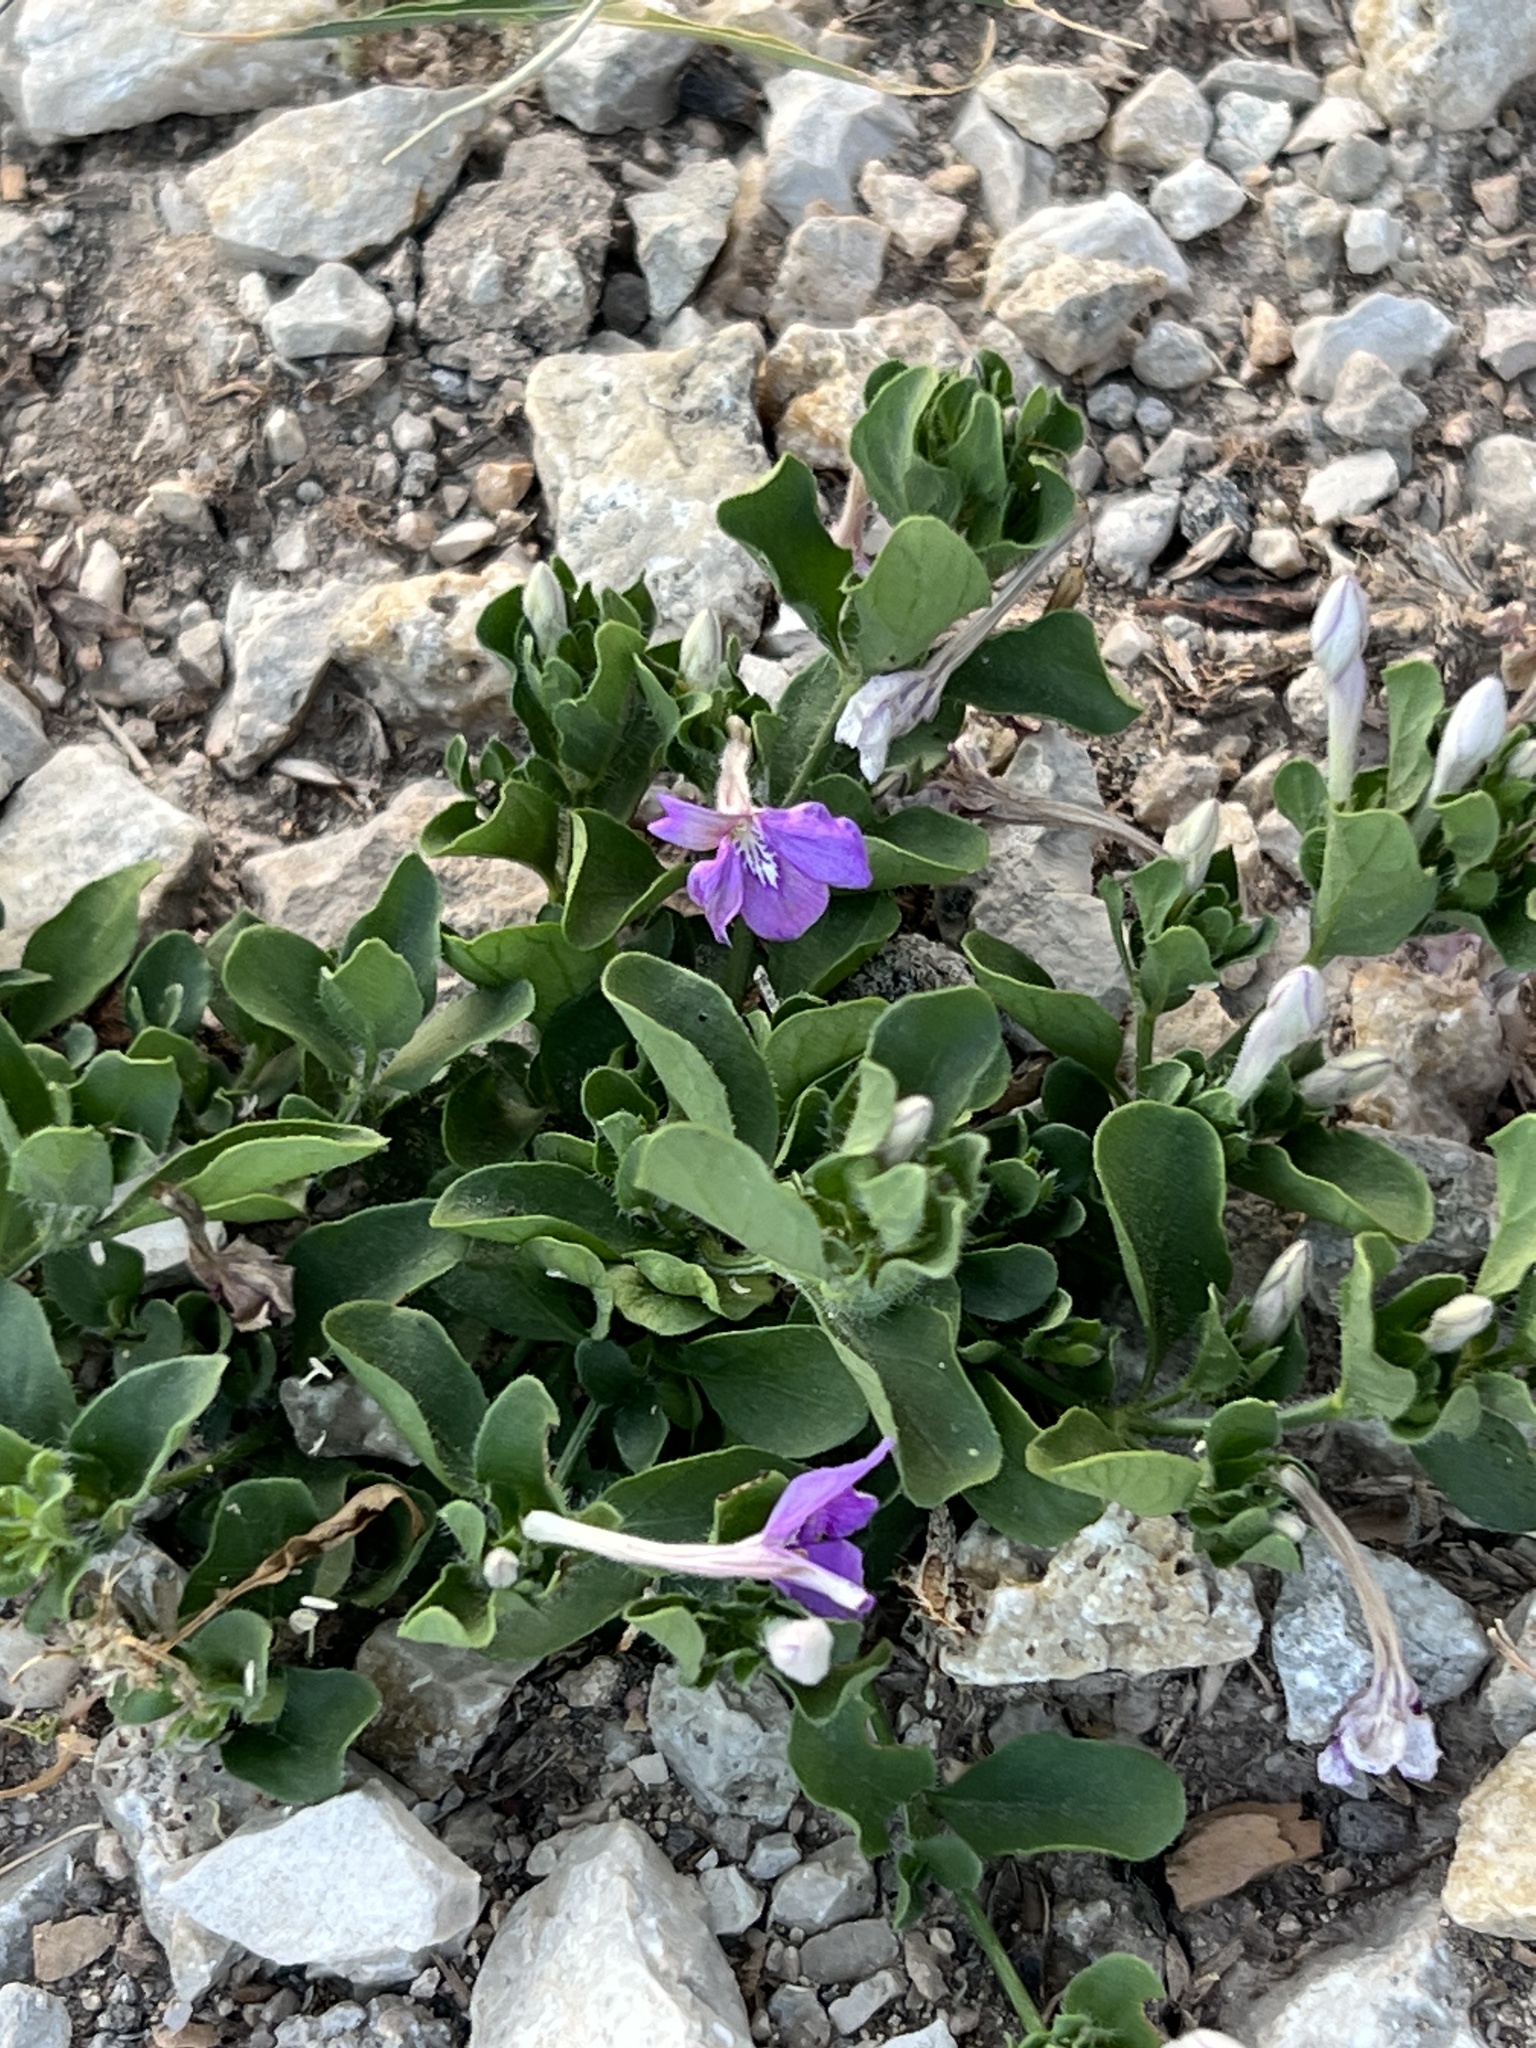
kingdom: Plantae
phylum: Tracheophyta
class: Magnoliopsida
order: Lamiales
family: Acanthaceae
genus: Justicia
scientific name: Justicia pilosella
